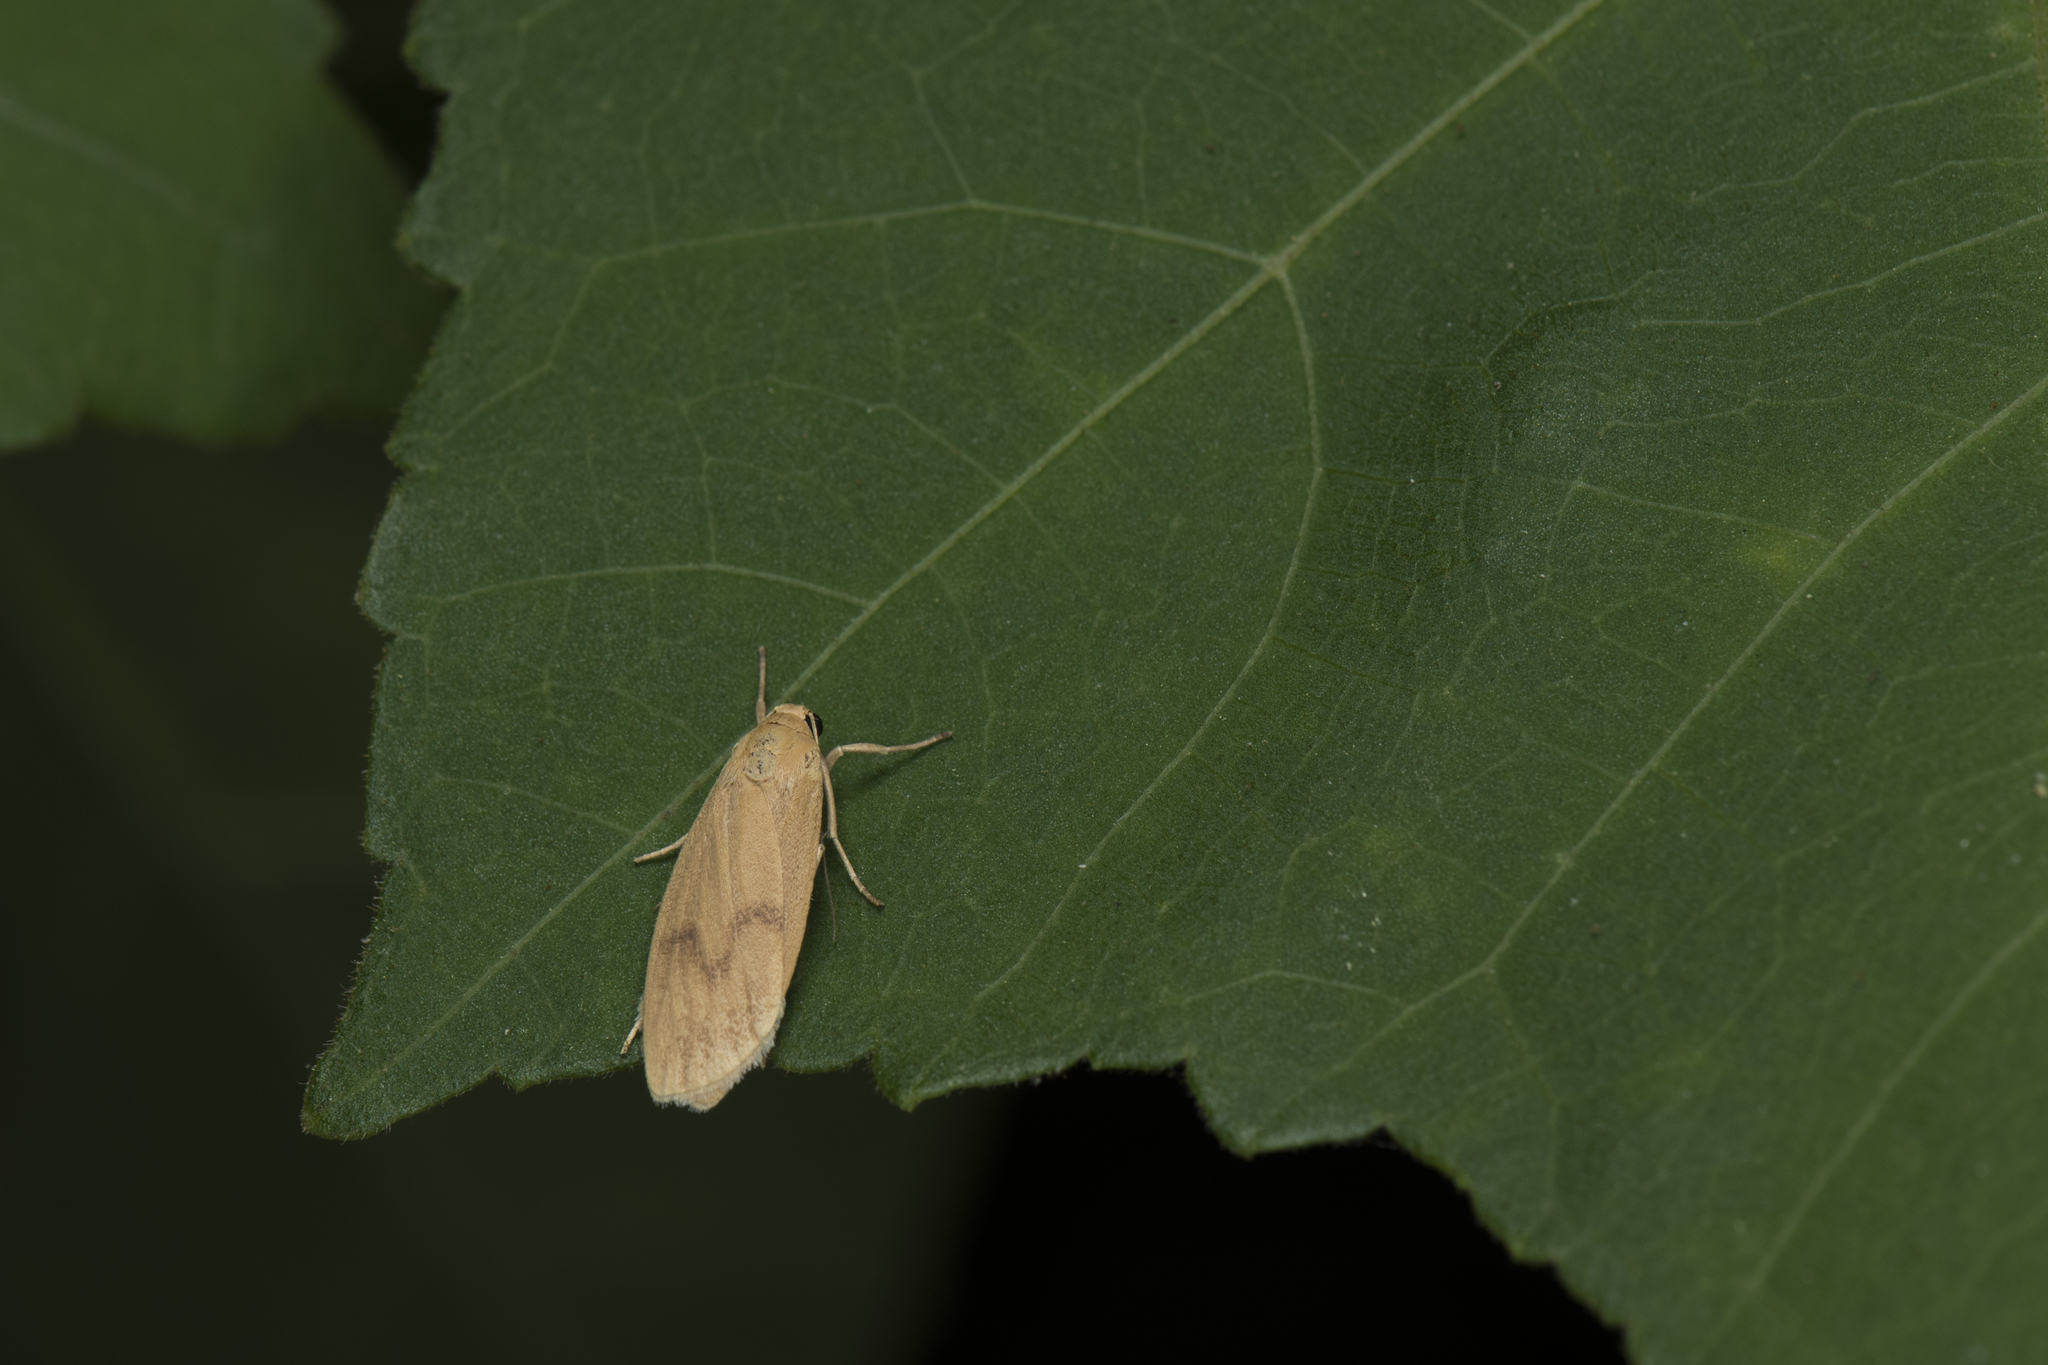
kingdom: Animalia
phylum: Arthropoda
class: Insecta
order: Lepidoptera
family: Erebidae
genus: Teuloma
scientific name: Teuloma tainebula
